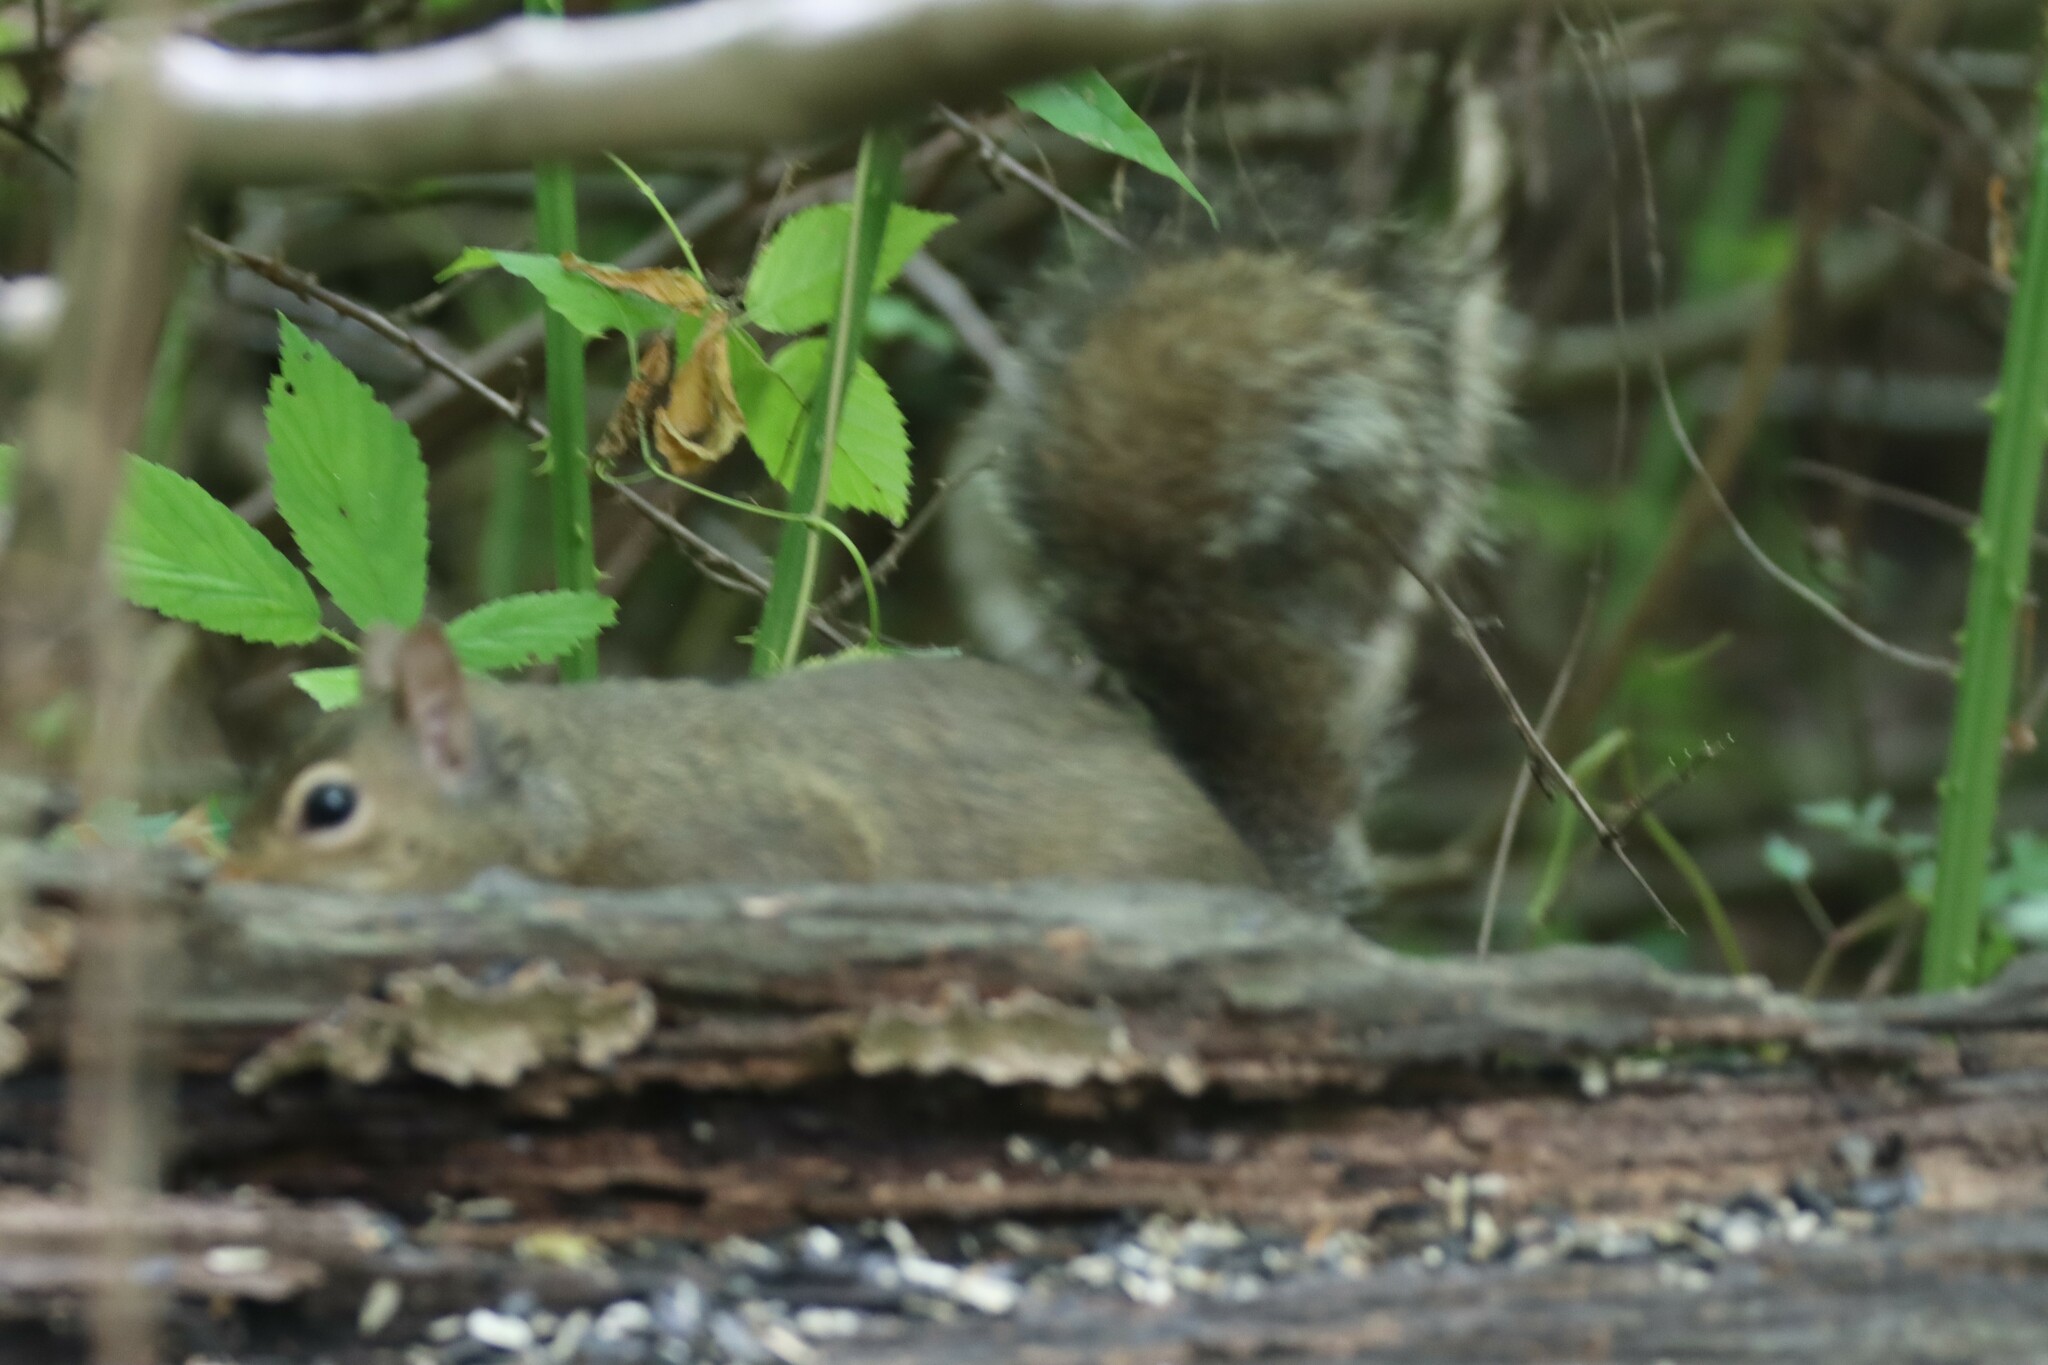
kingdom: Animalia
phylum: Chordata
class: Mammalia
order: Rodentia
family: Sciuridae
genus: Sciurus
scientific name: Sciurus carolinensis
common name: Eastern gray squirrel
